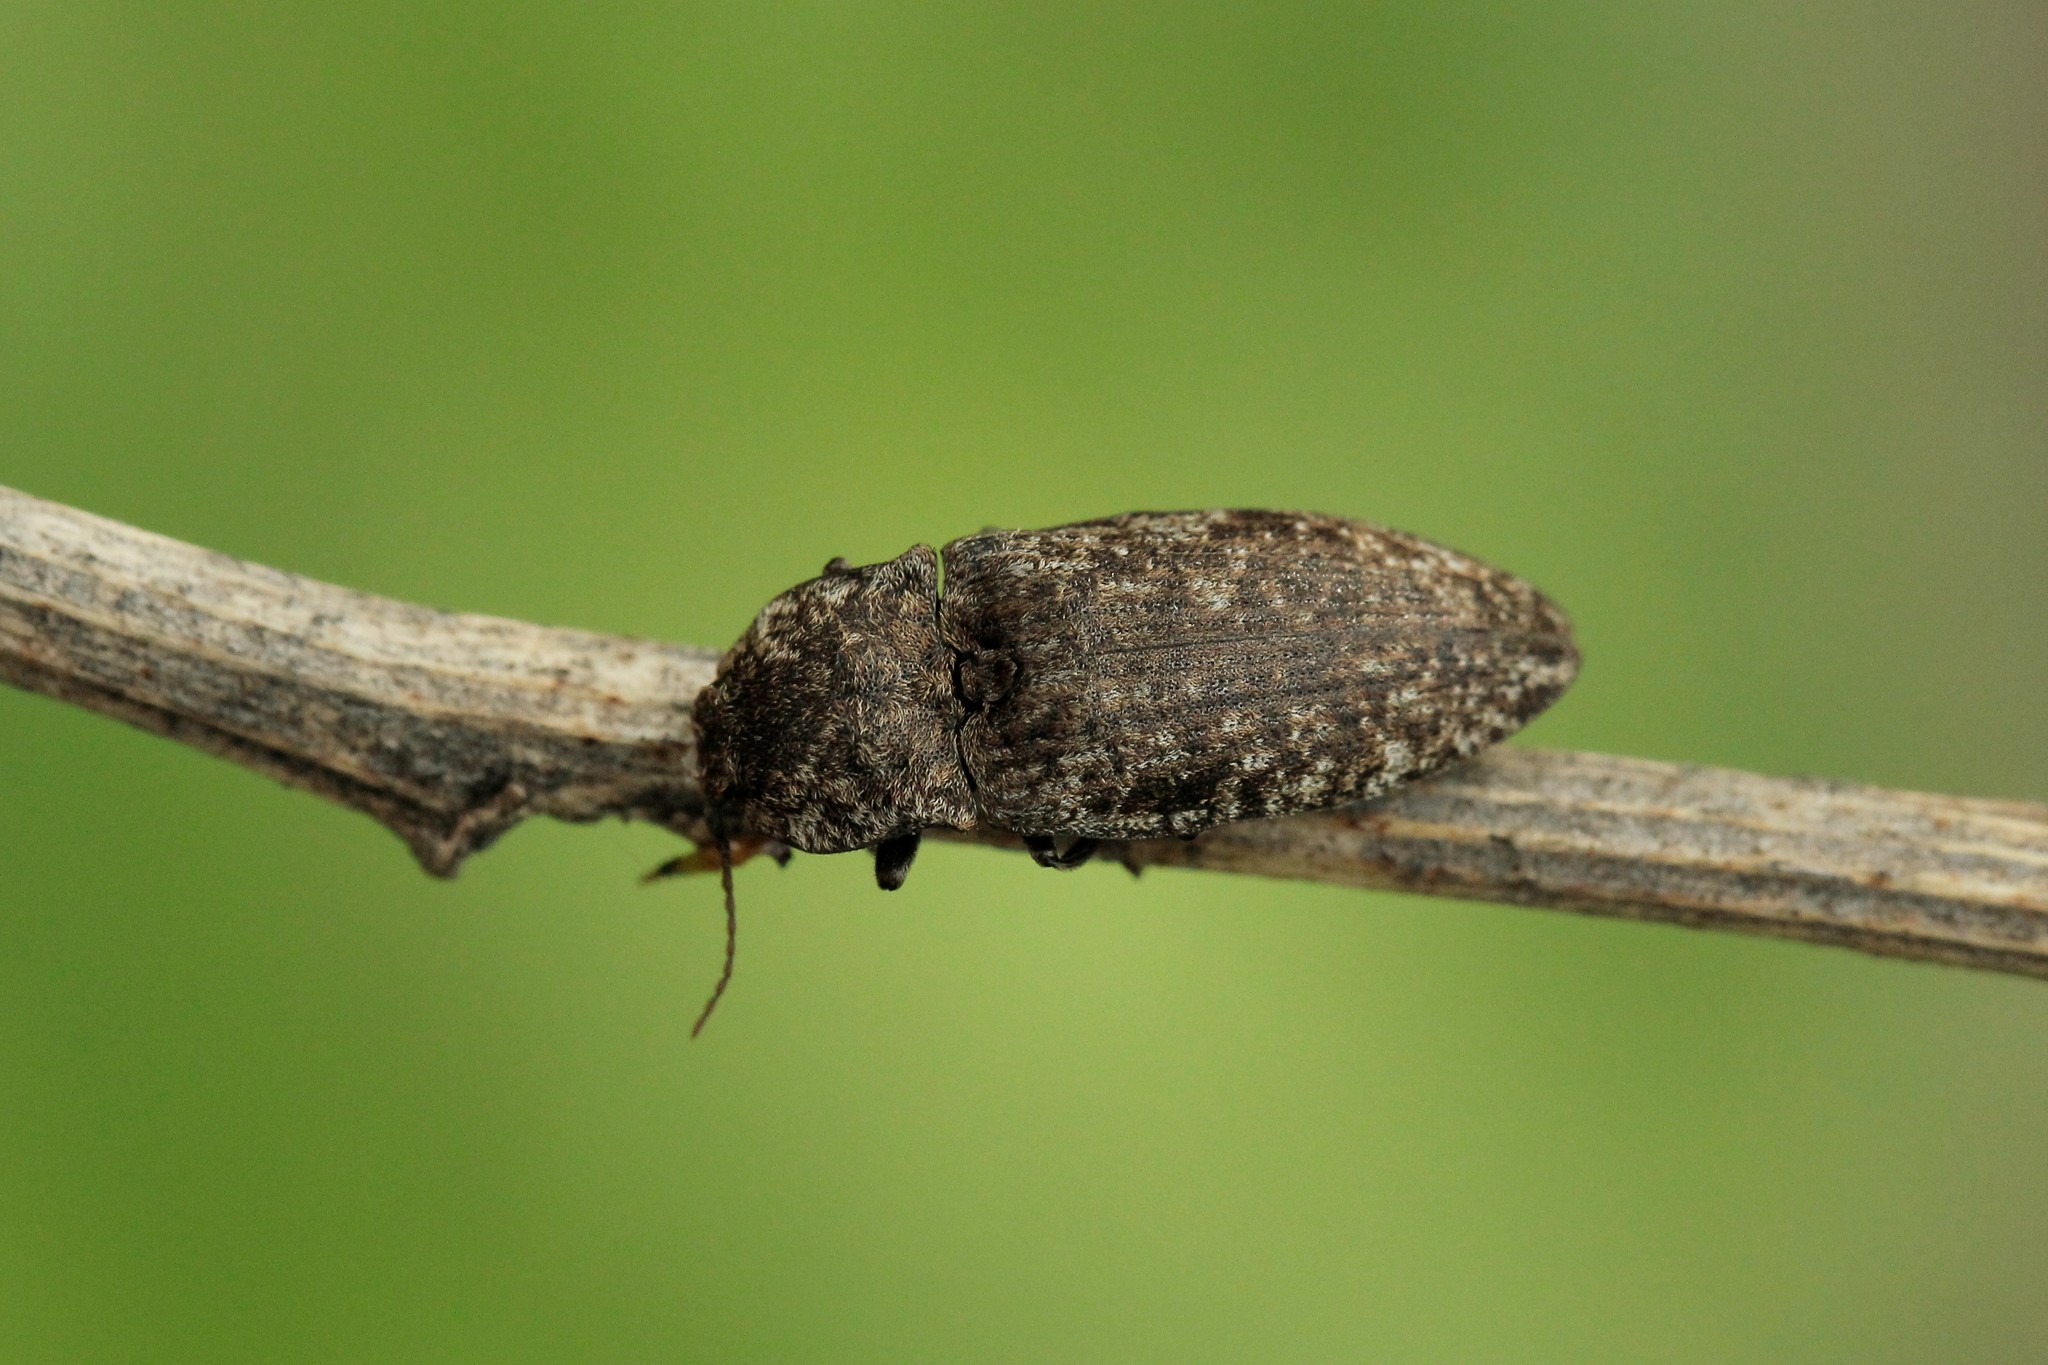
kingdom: Animalia
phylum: Arthropoda
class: Insecta
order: Coleoptera
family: Elateridae
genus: Agrypnus
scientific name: Agrypnus murinus
